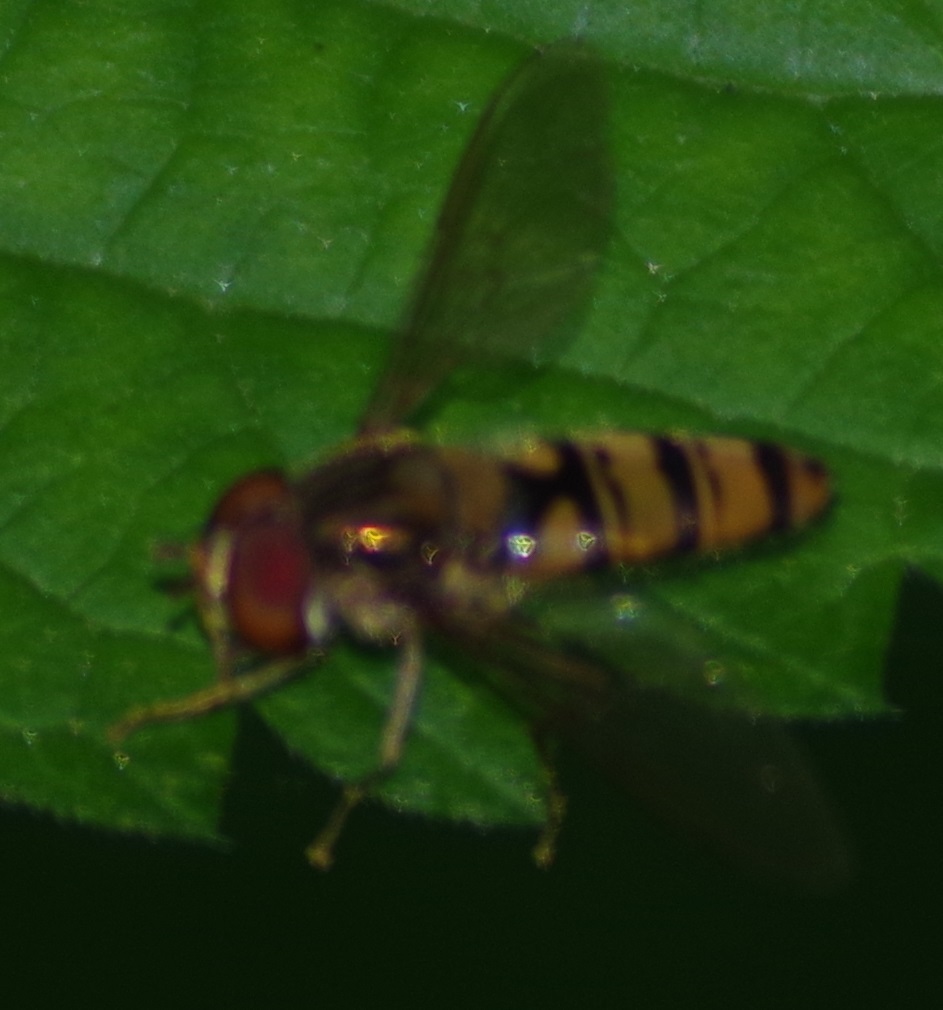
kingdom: Animalia
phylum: Arthropoda
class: Insecta
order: Diptera
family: Syrphidae
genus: Episyrphus
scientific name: Episyrphus balteatus
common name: Marmalade hoverfly
